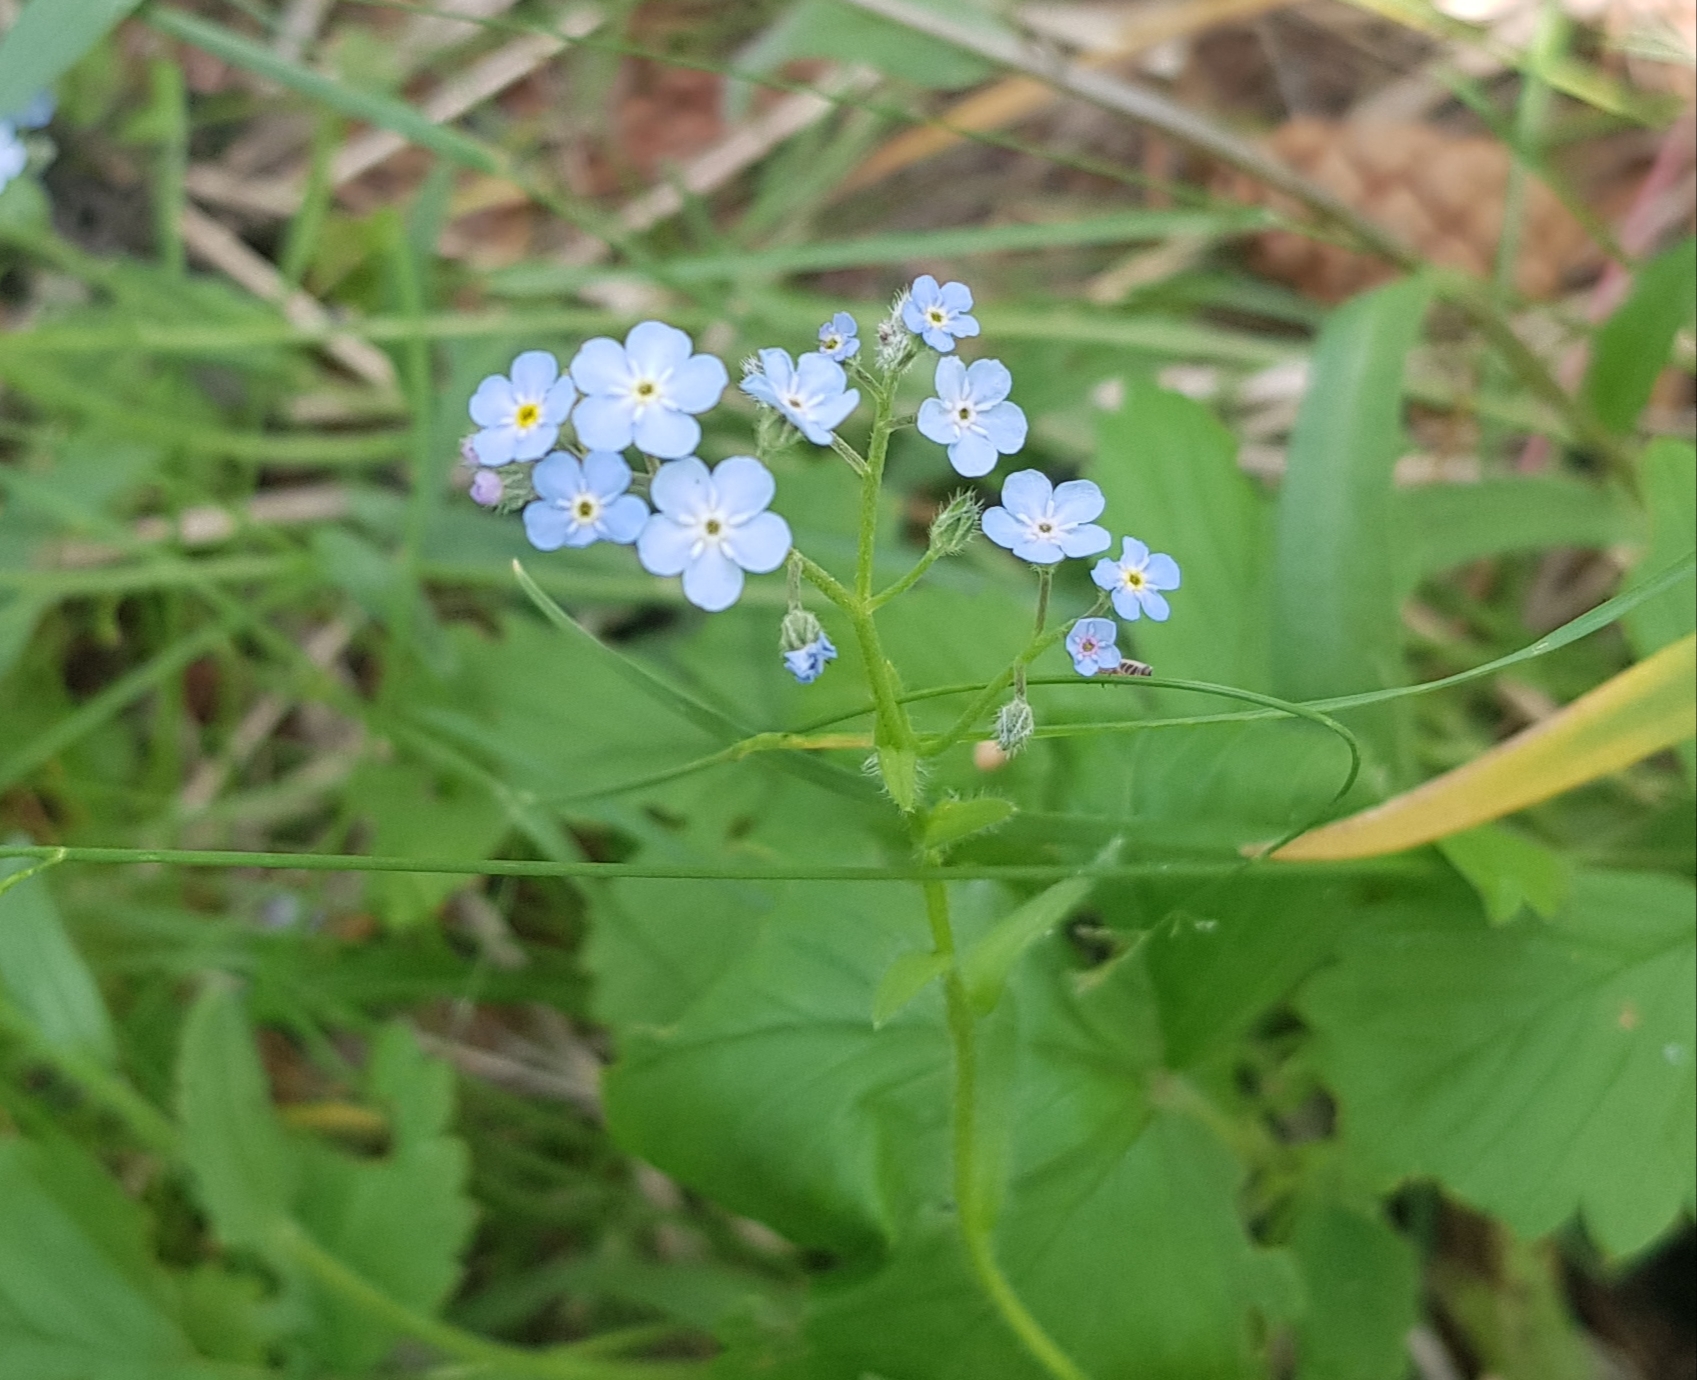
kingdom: Plantae
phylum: Tracheophyta
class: Magnoliopsida
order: Boraginales
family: Boraginaceae
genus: Myosotis
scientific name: Myosotis sylvatica
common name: Wood forget-me-not
